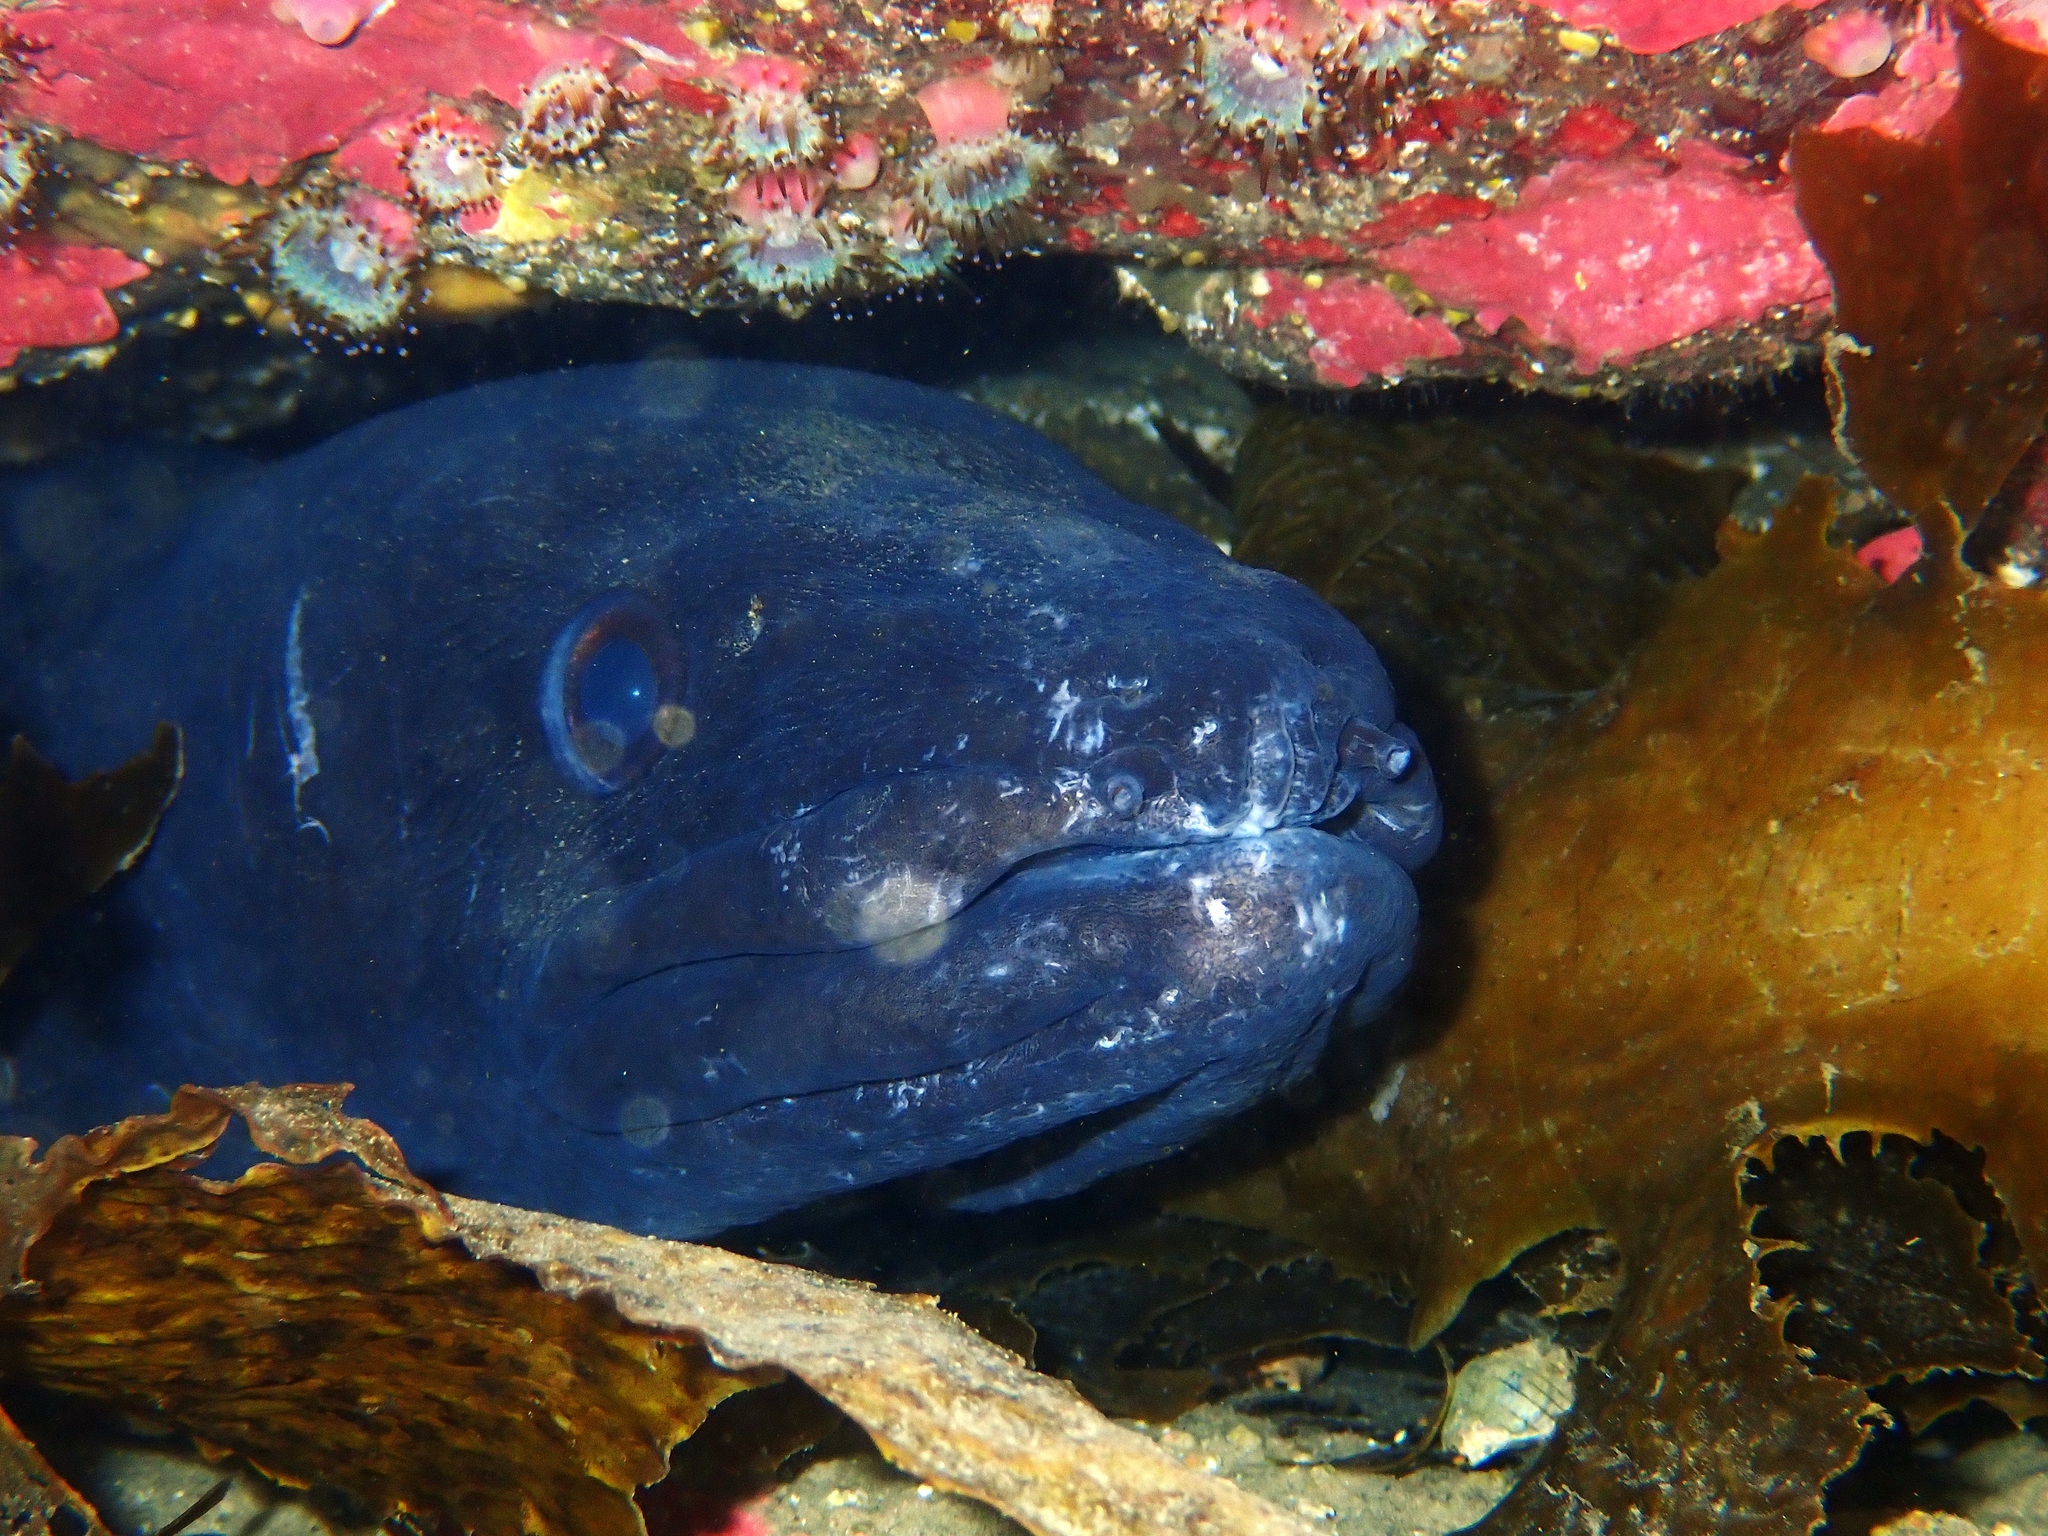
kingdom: Animalia
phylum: Chordata
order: Anguilliformes
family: Congridae
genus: Conger
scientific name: Conger verreauxi
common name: Conger eel
